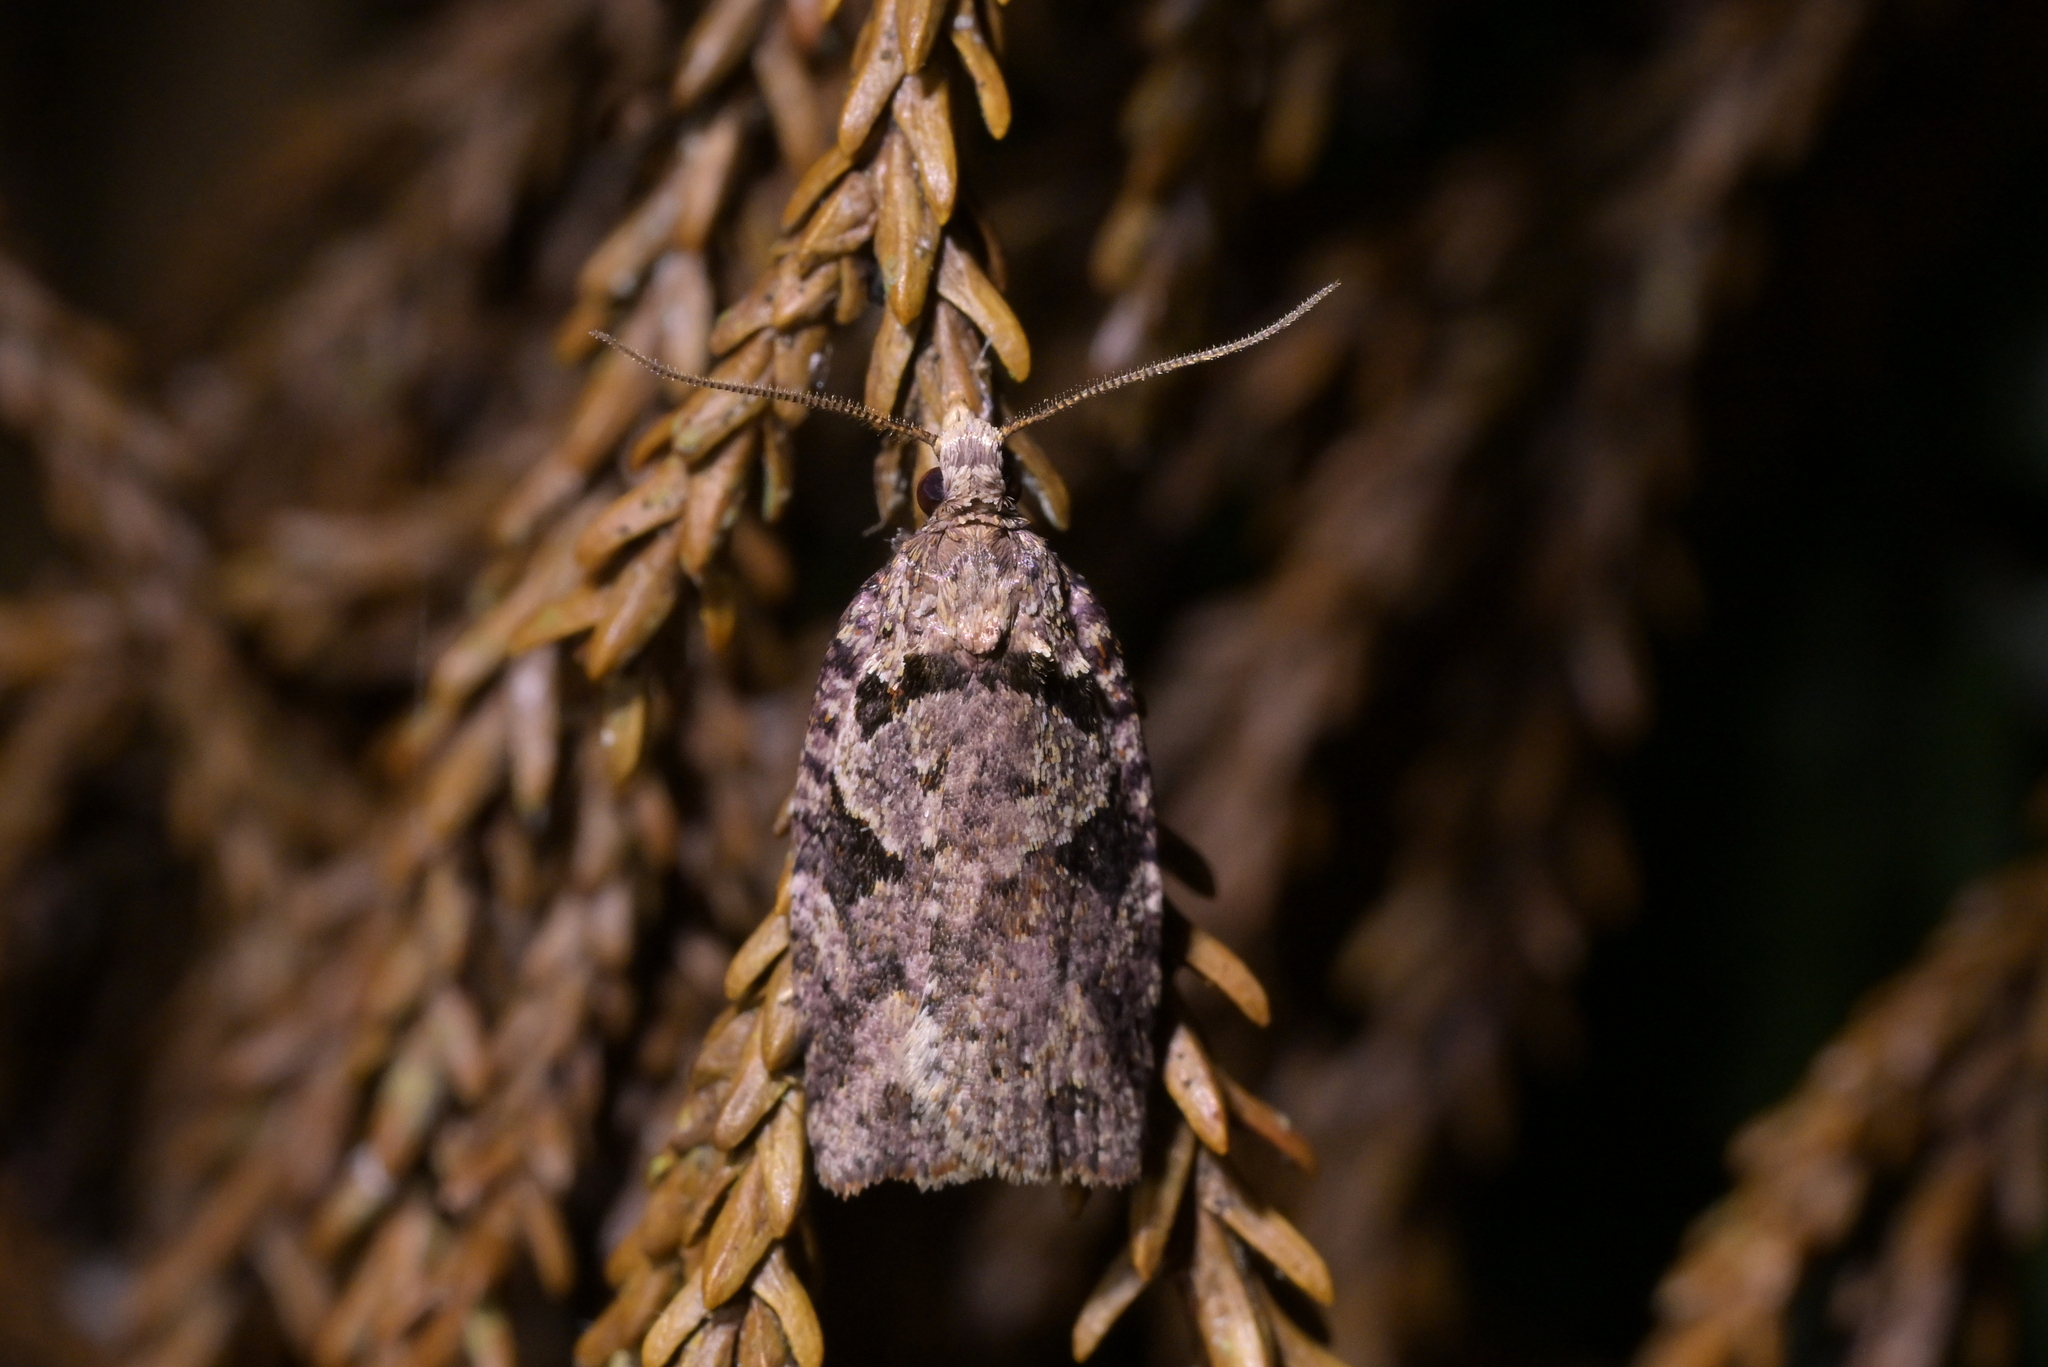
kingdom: Animalia
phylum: Arthropoda
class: Insecta
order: Lepidoptera
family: Tortricidae
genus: Ctenopseustis
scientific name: Ctenopseustis obliquana
